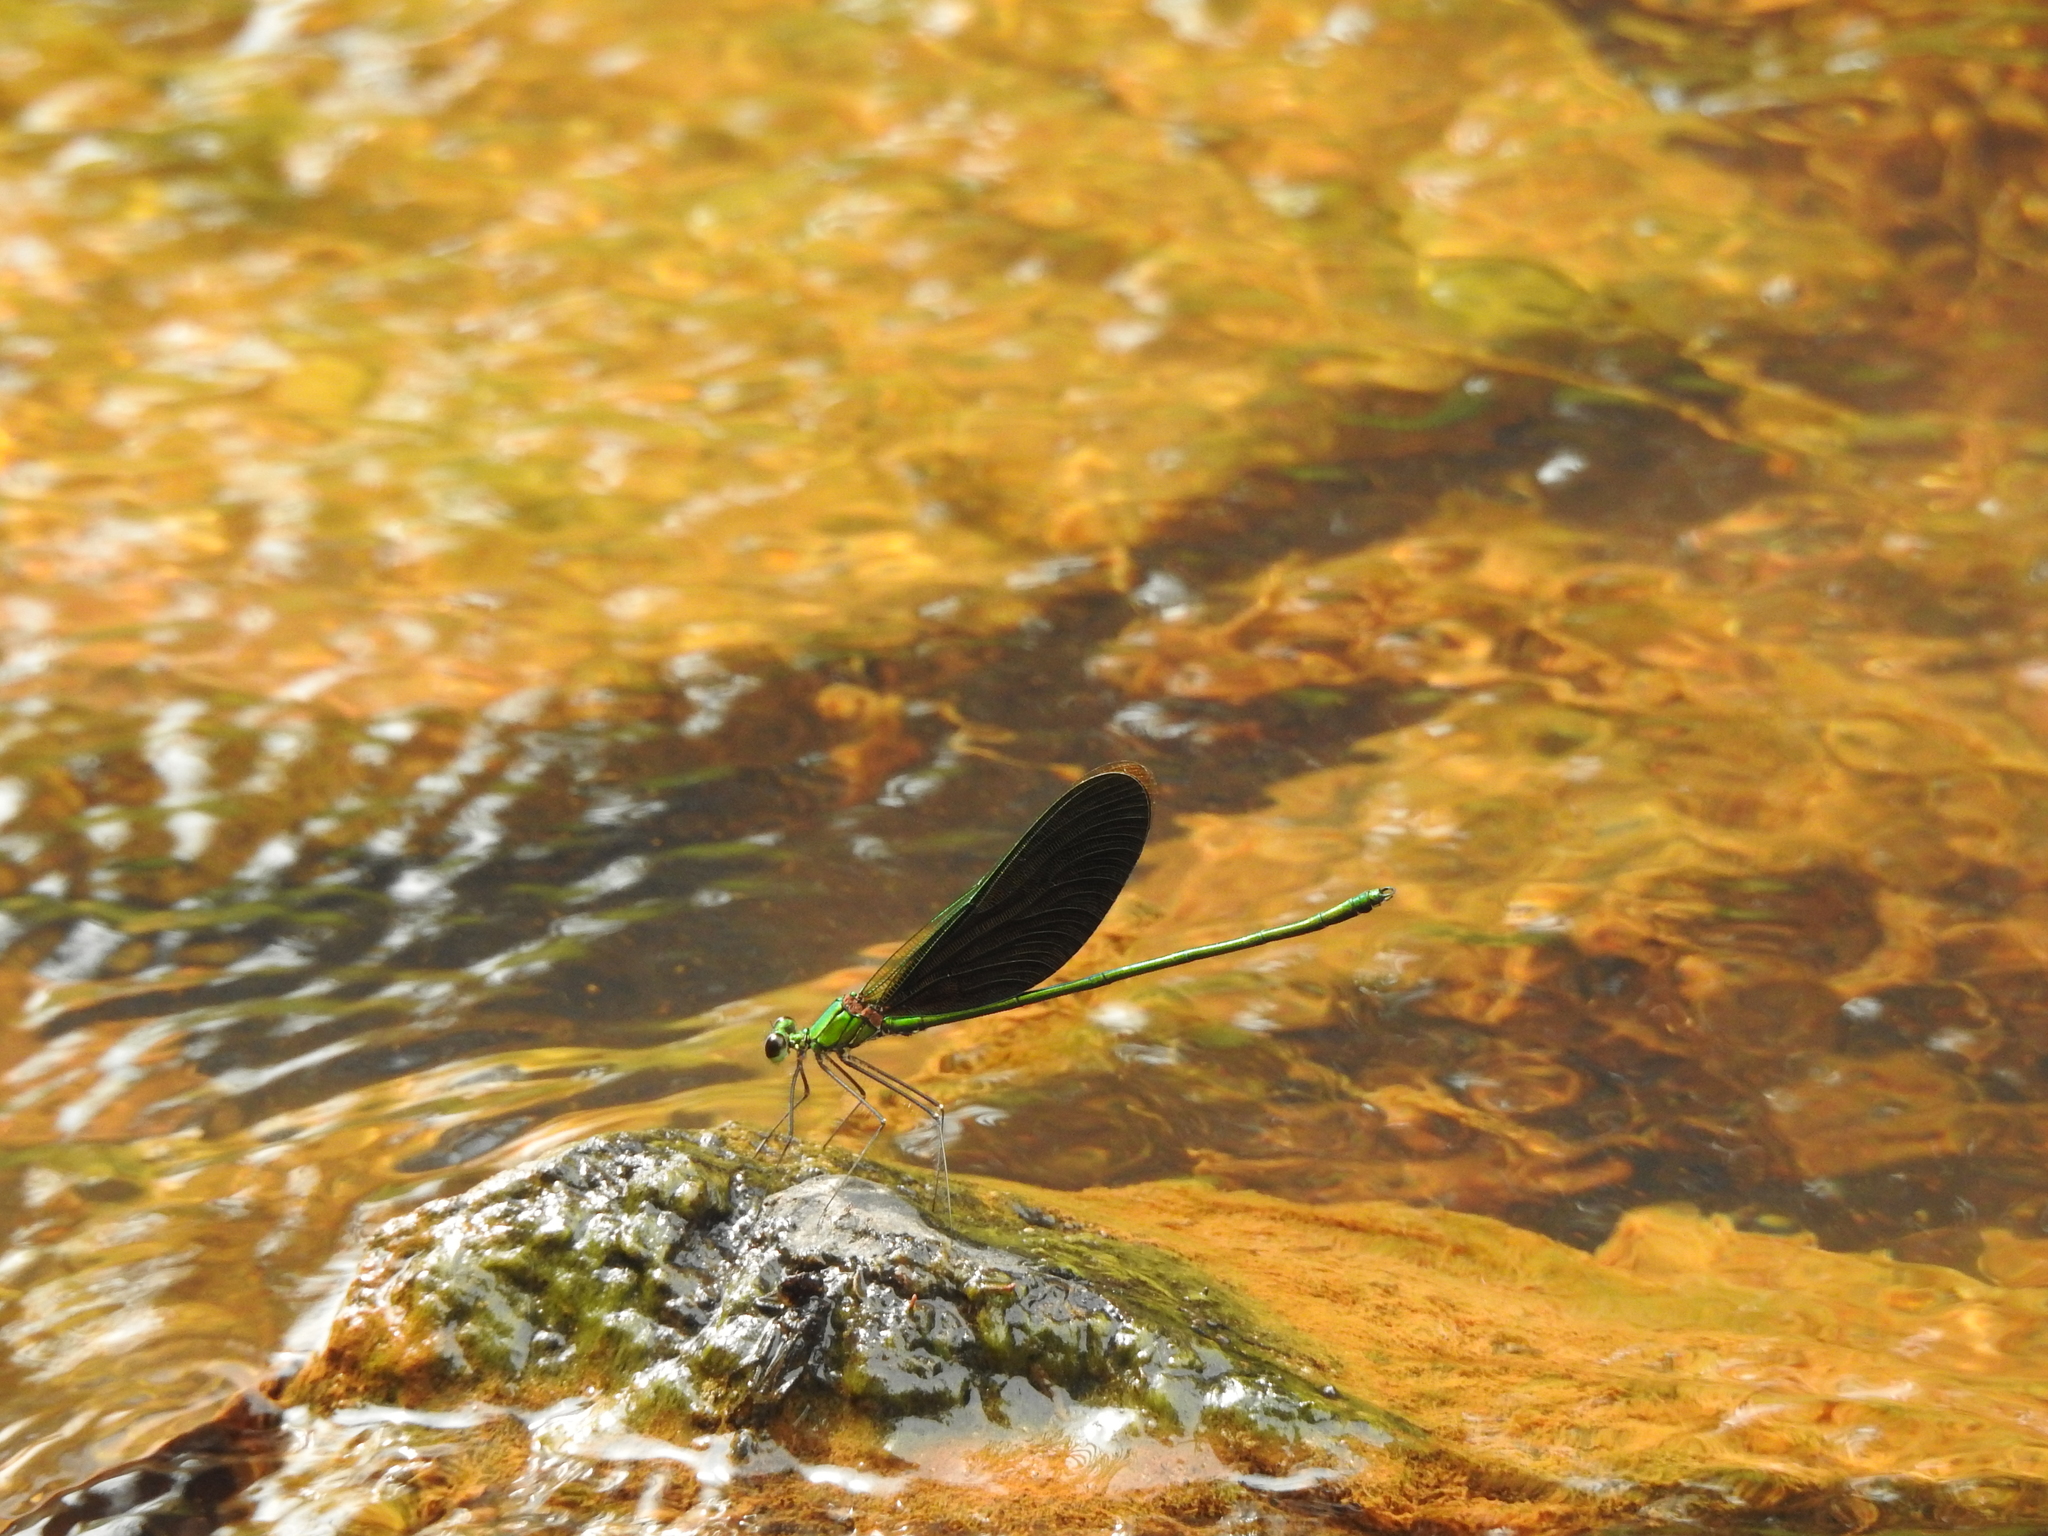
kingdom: Animalia
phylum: Arthropoda
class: Insecta
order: Odonata
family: Calopterygidae
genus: Neurobasis
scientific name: Neurobasis chinensis
